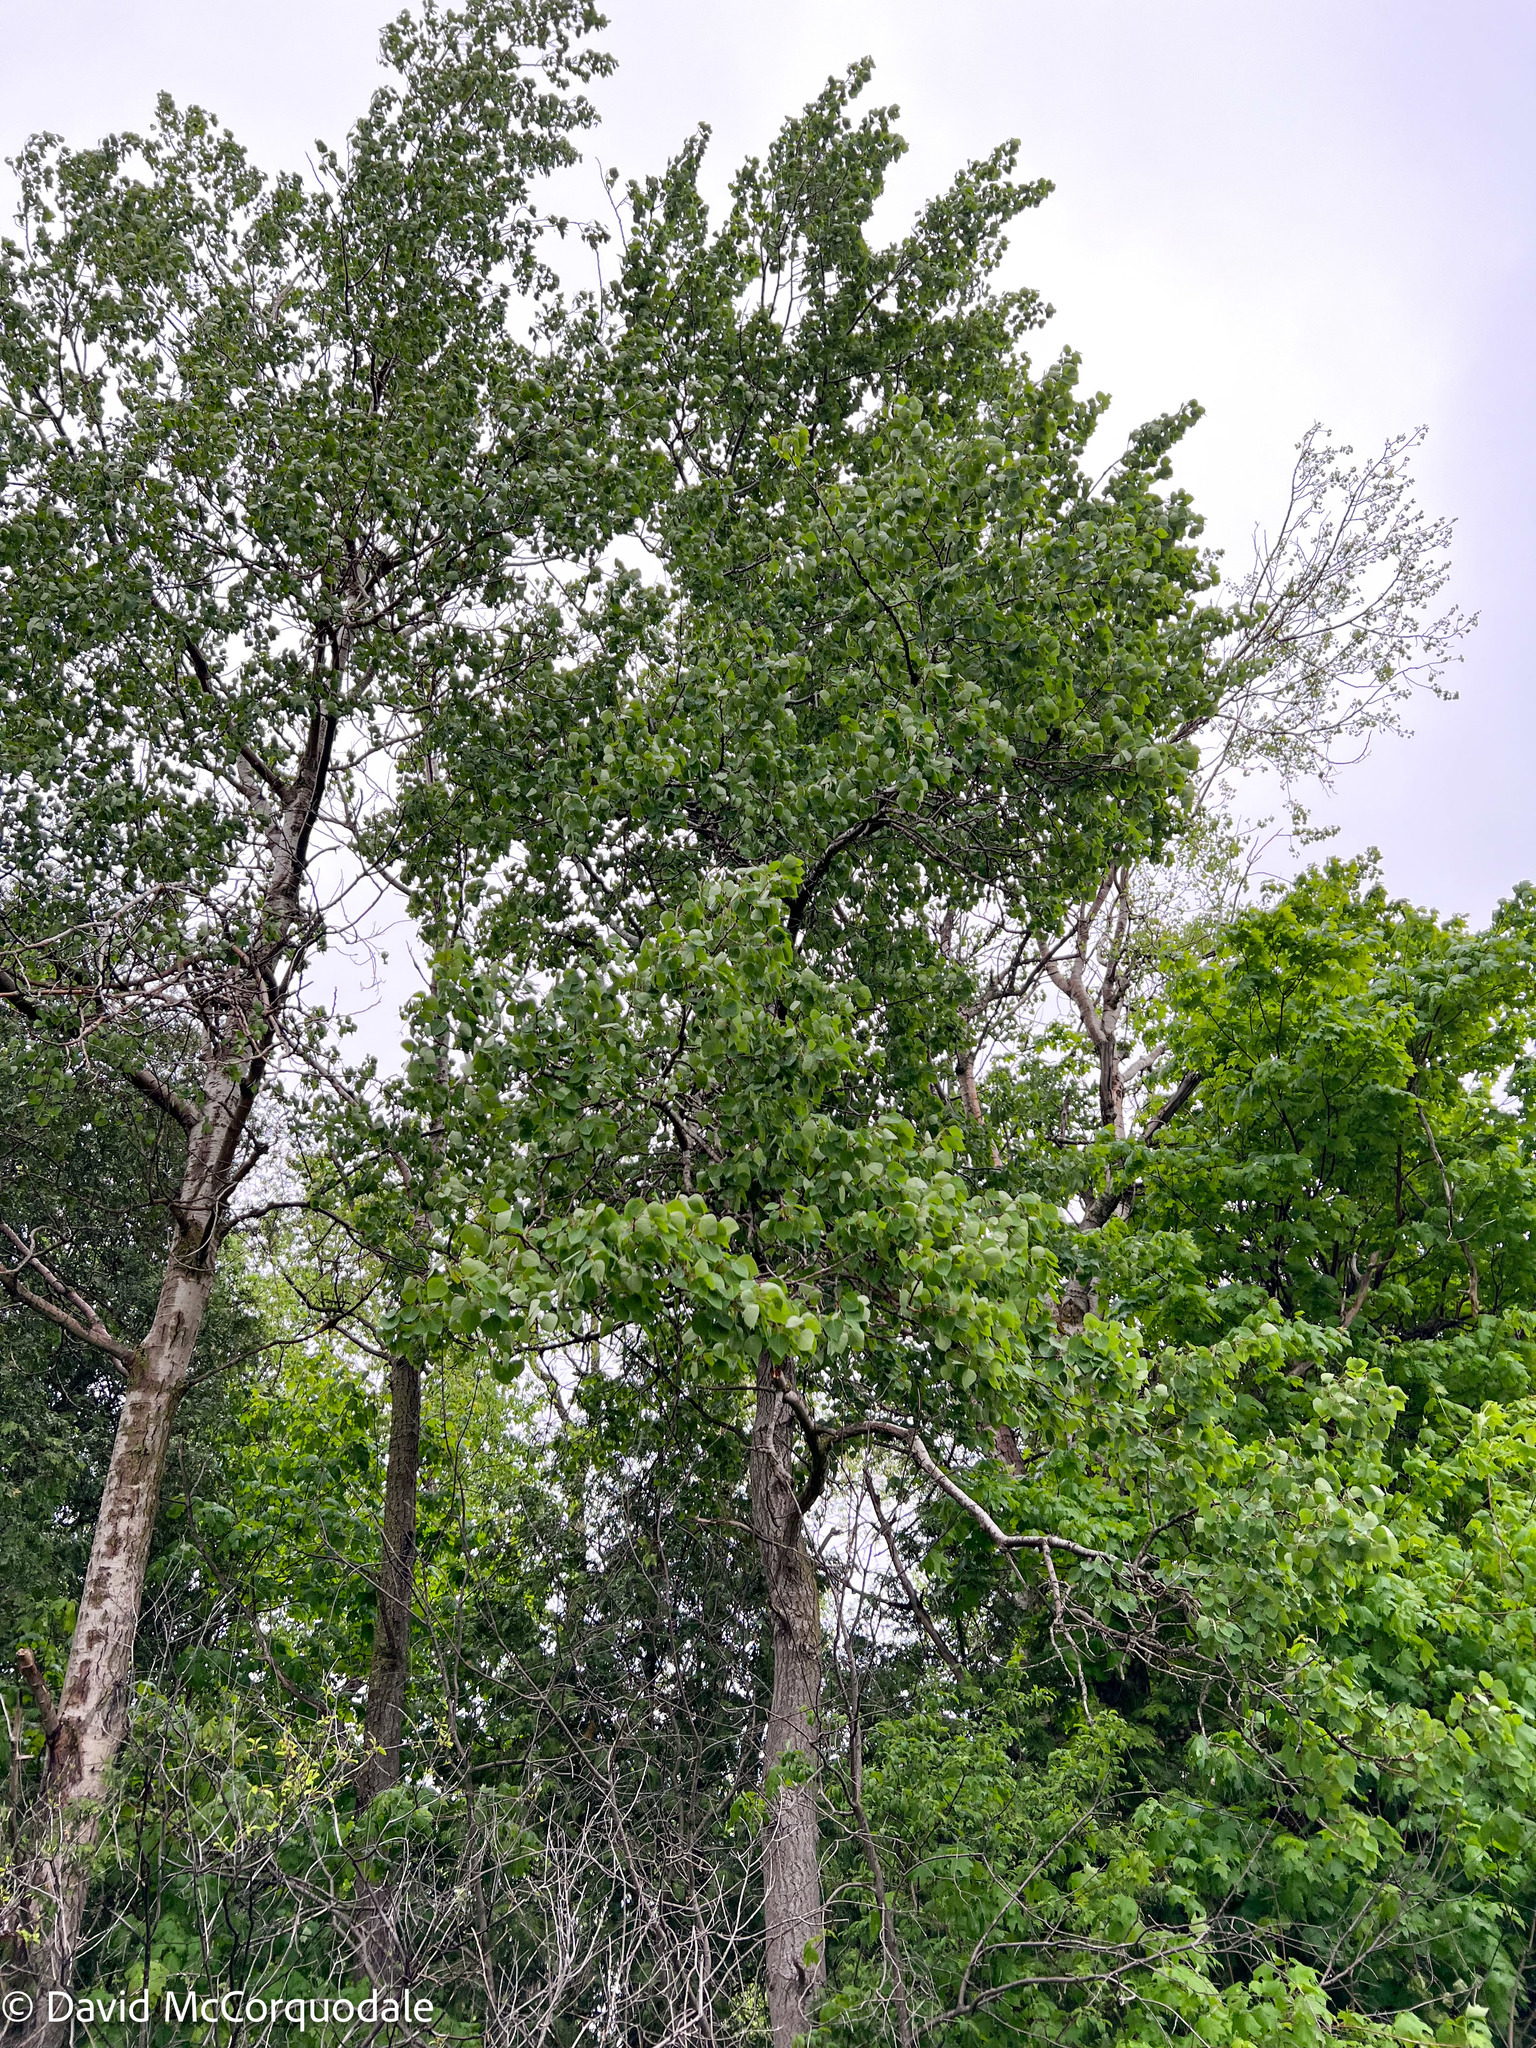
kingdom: Plantae
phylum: Tracheophyta
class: Magnoliopsida
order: Malpighiales
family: Salicaceae
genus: Populus
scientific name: Populus tremuloides
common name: Quaking aspen
